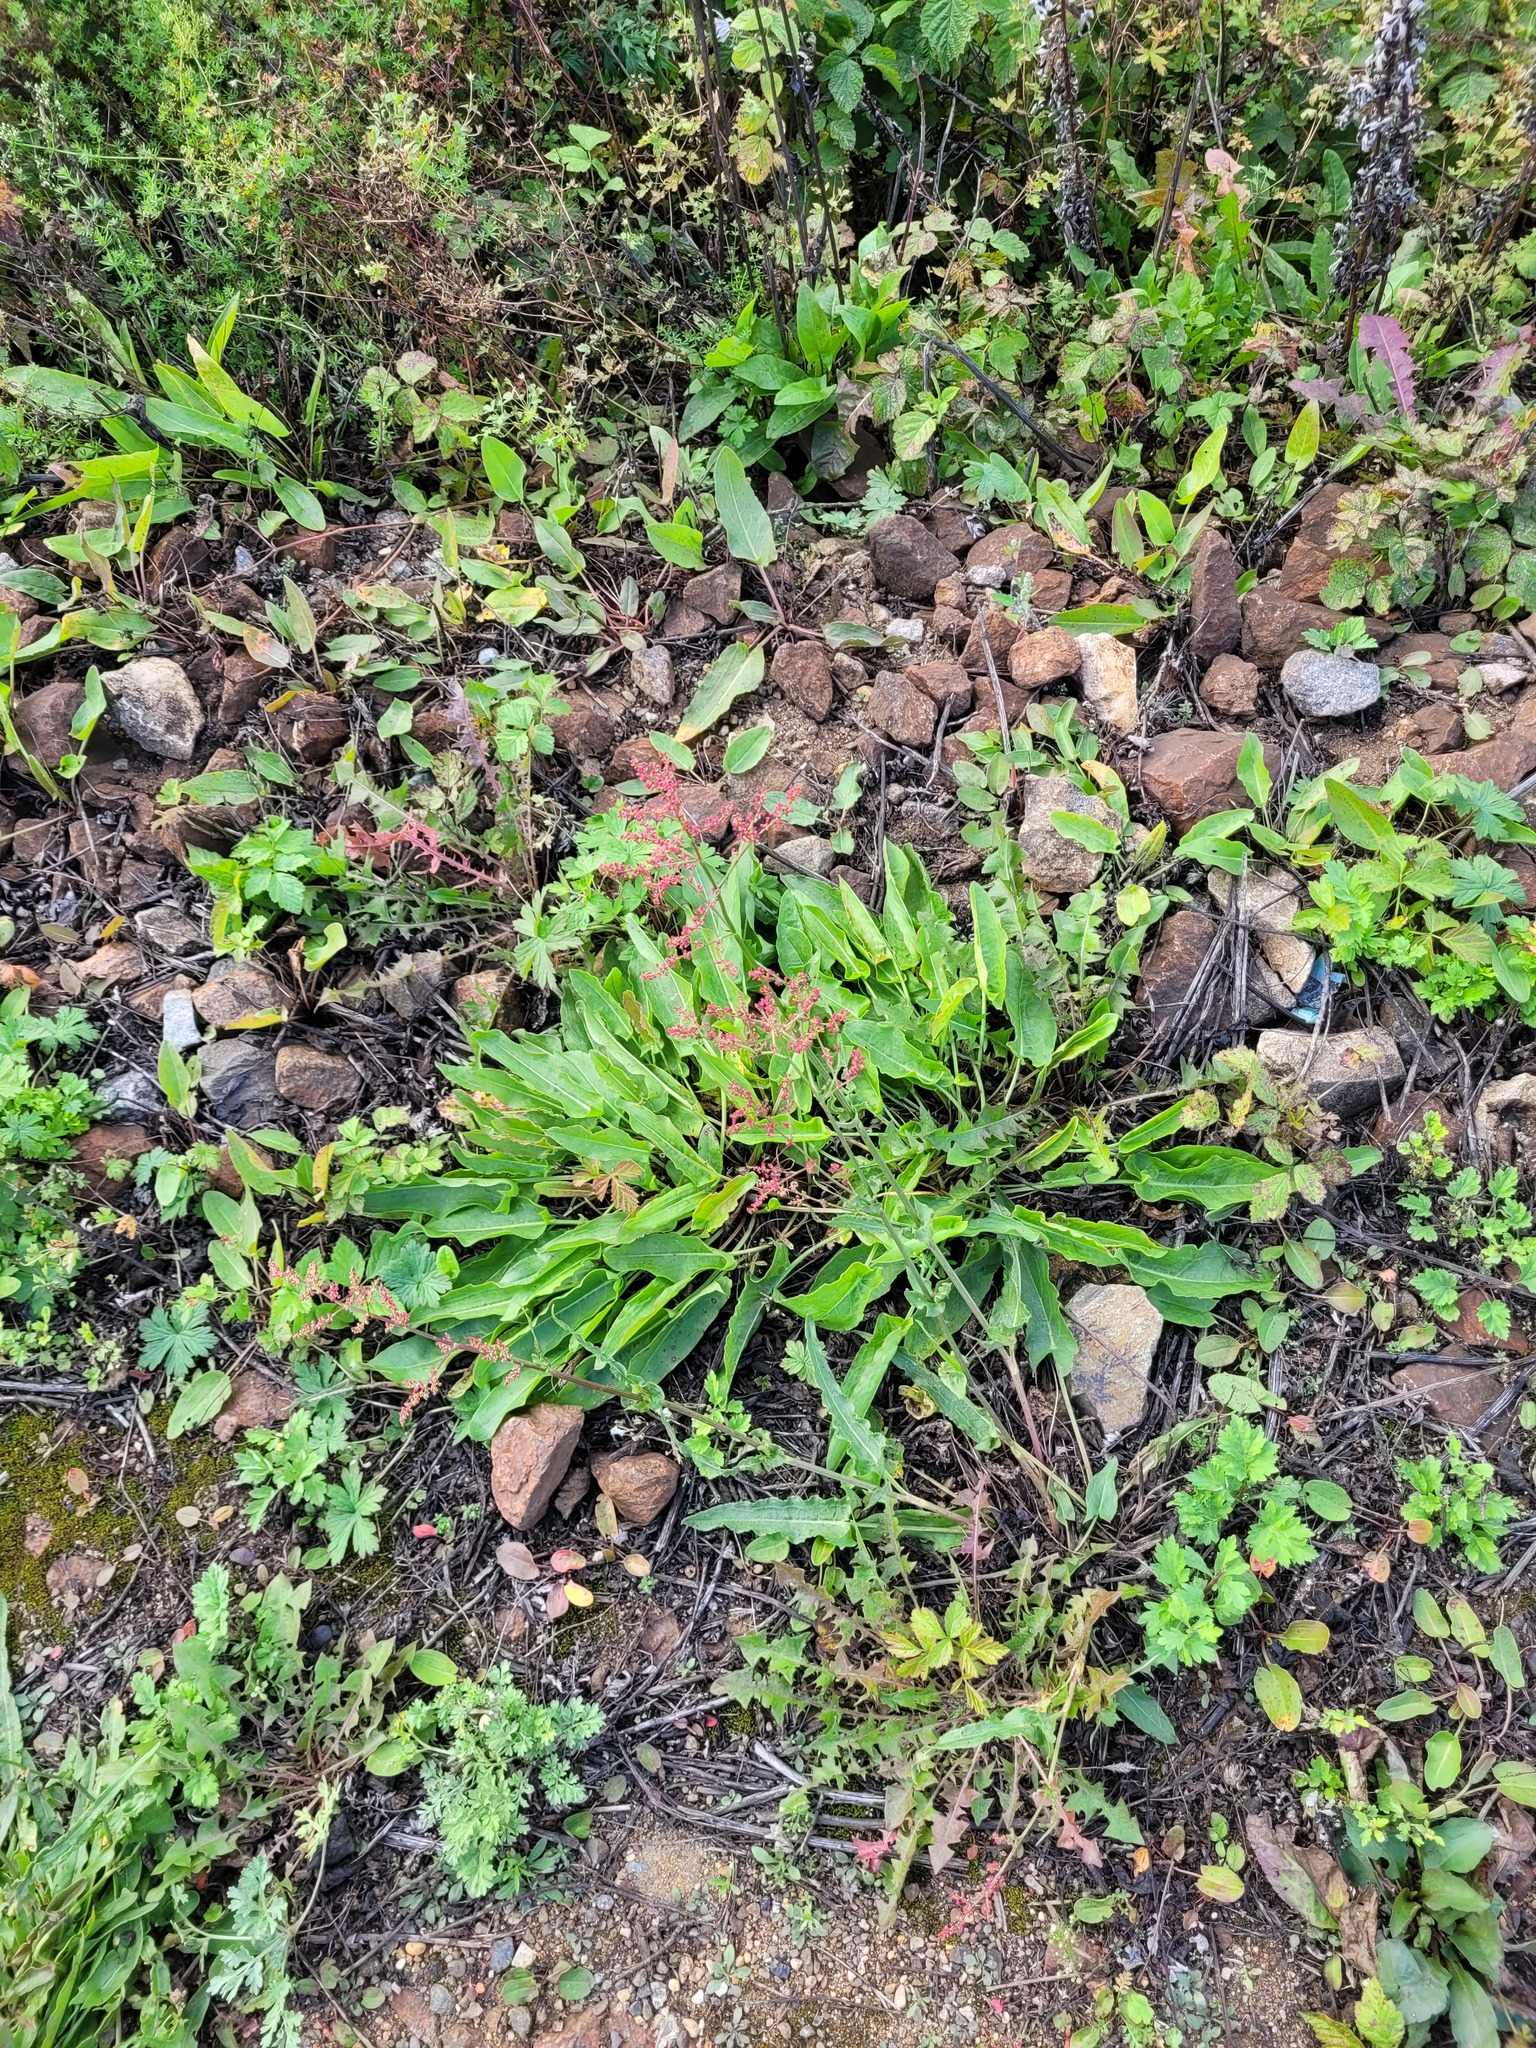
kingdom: Plantae
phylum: Tracheophyta
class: Magnoliopsida
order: Caryophyllales
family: Polygonaceae
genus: Rumex
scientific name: Rumex thyrsiflorus
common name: Garden sorrel
